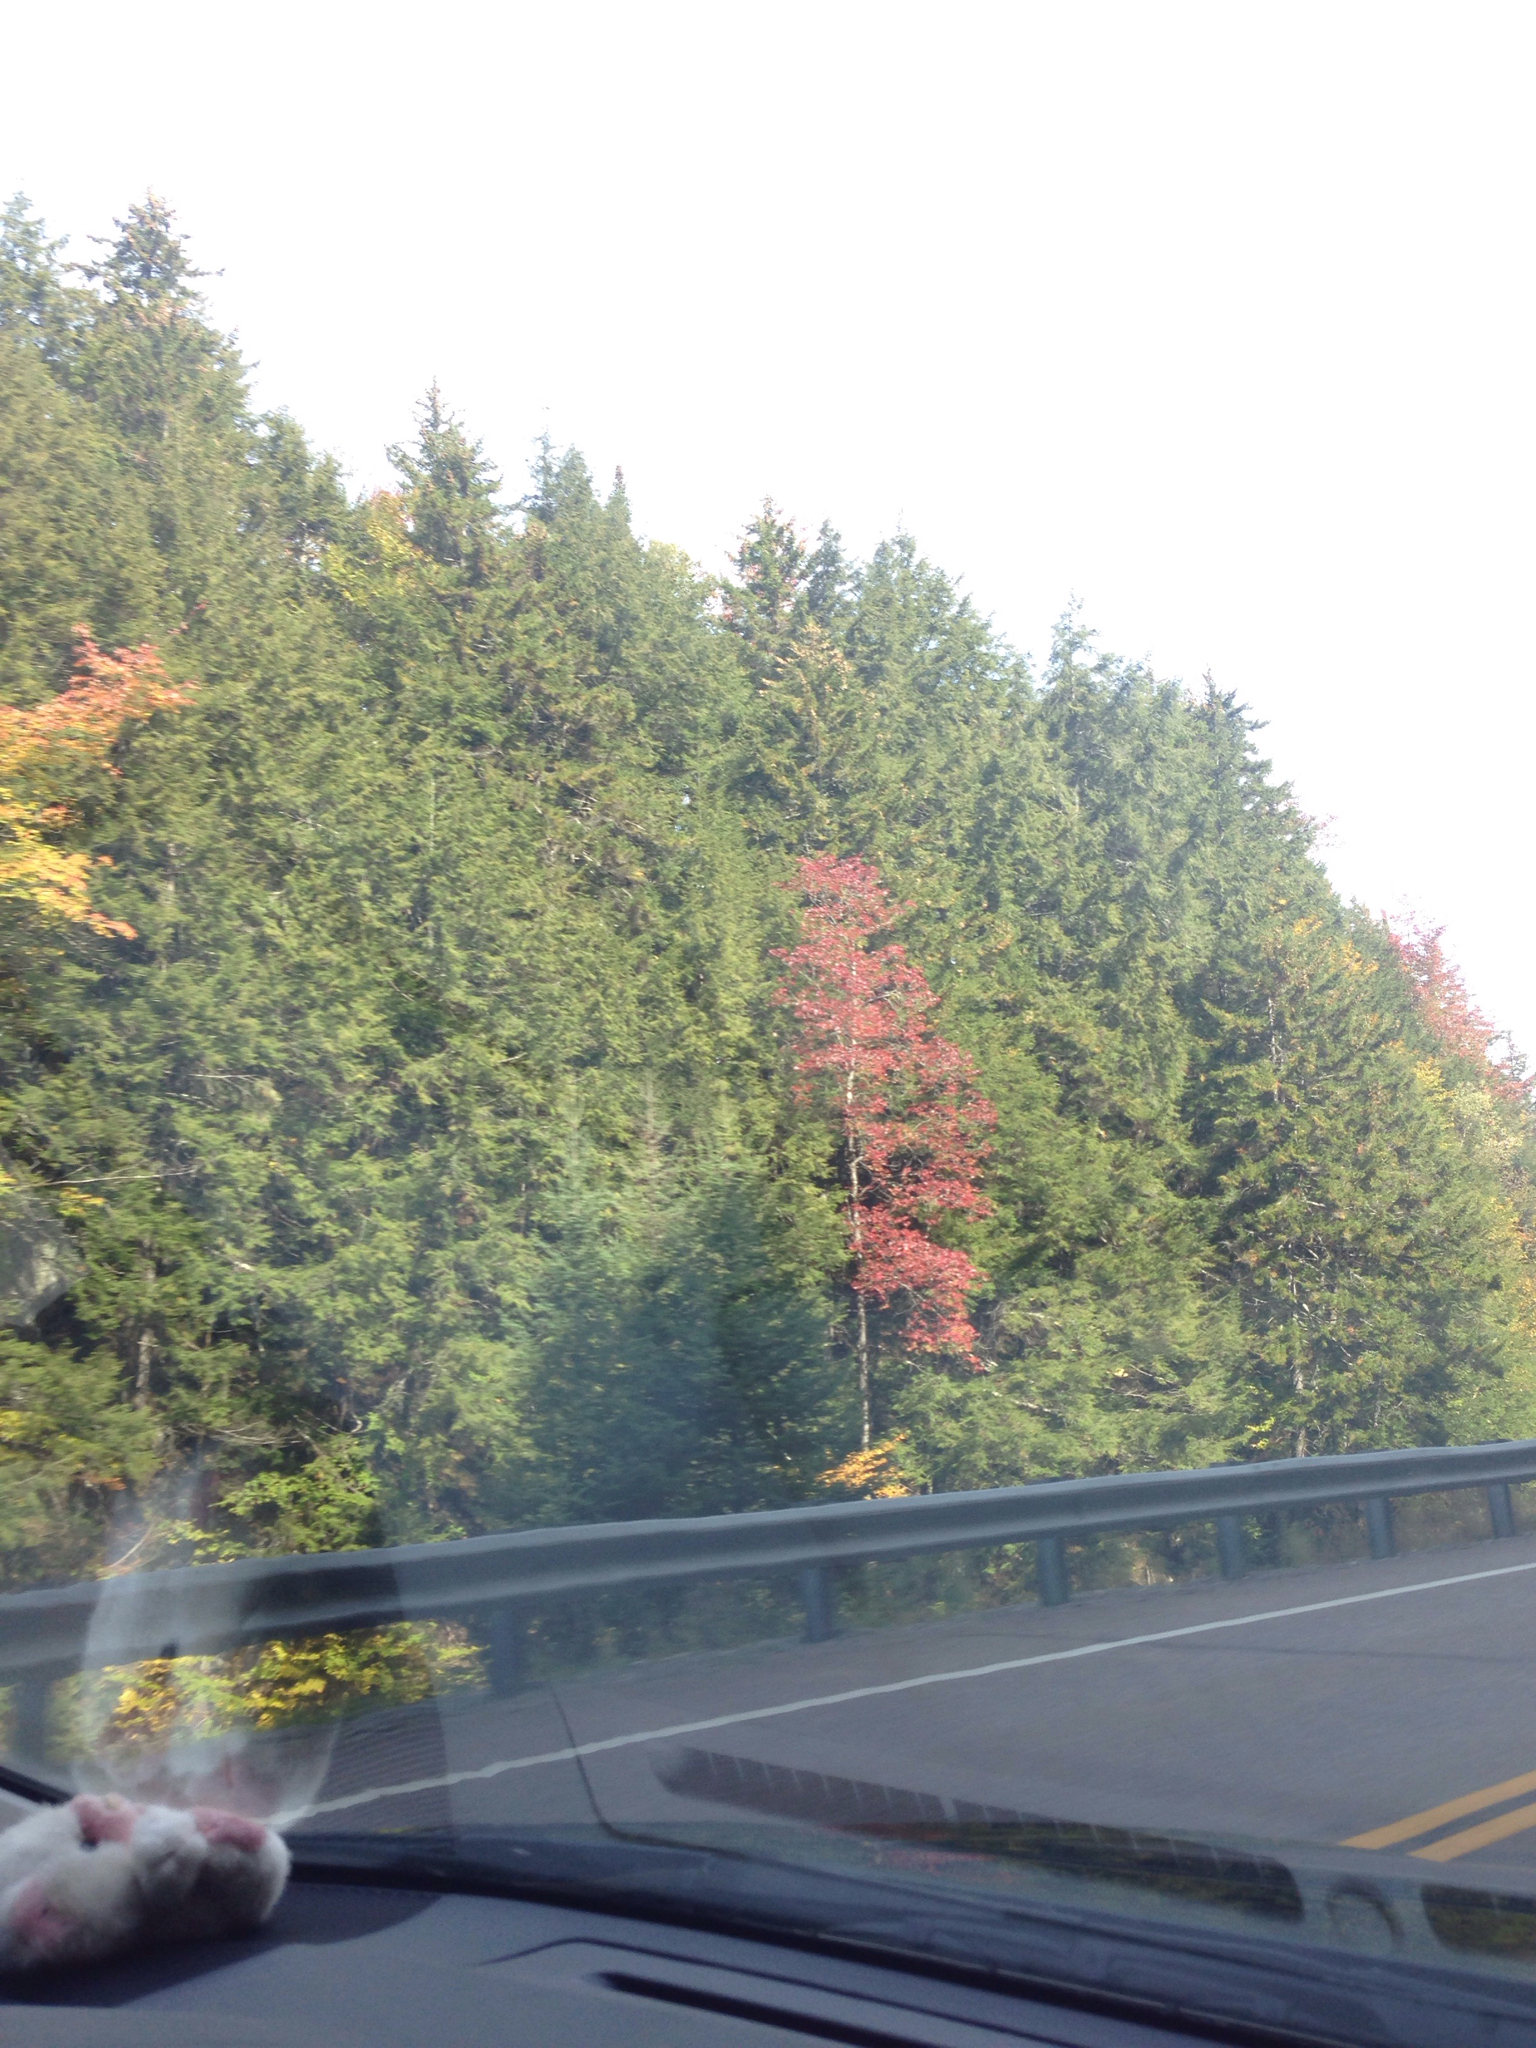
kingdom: Plantae
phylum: Tracheophyta
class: Magnoliopsida
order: Sapindales
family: Sapindaceae
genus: Acer
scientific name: Acer rubrum
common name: Red maple
